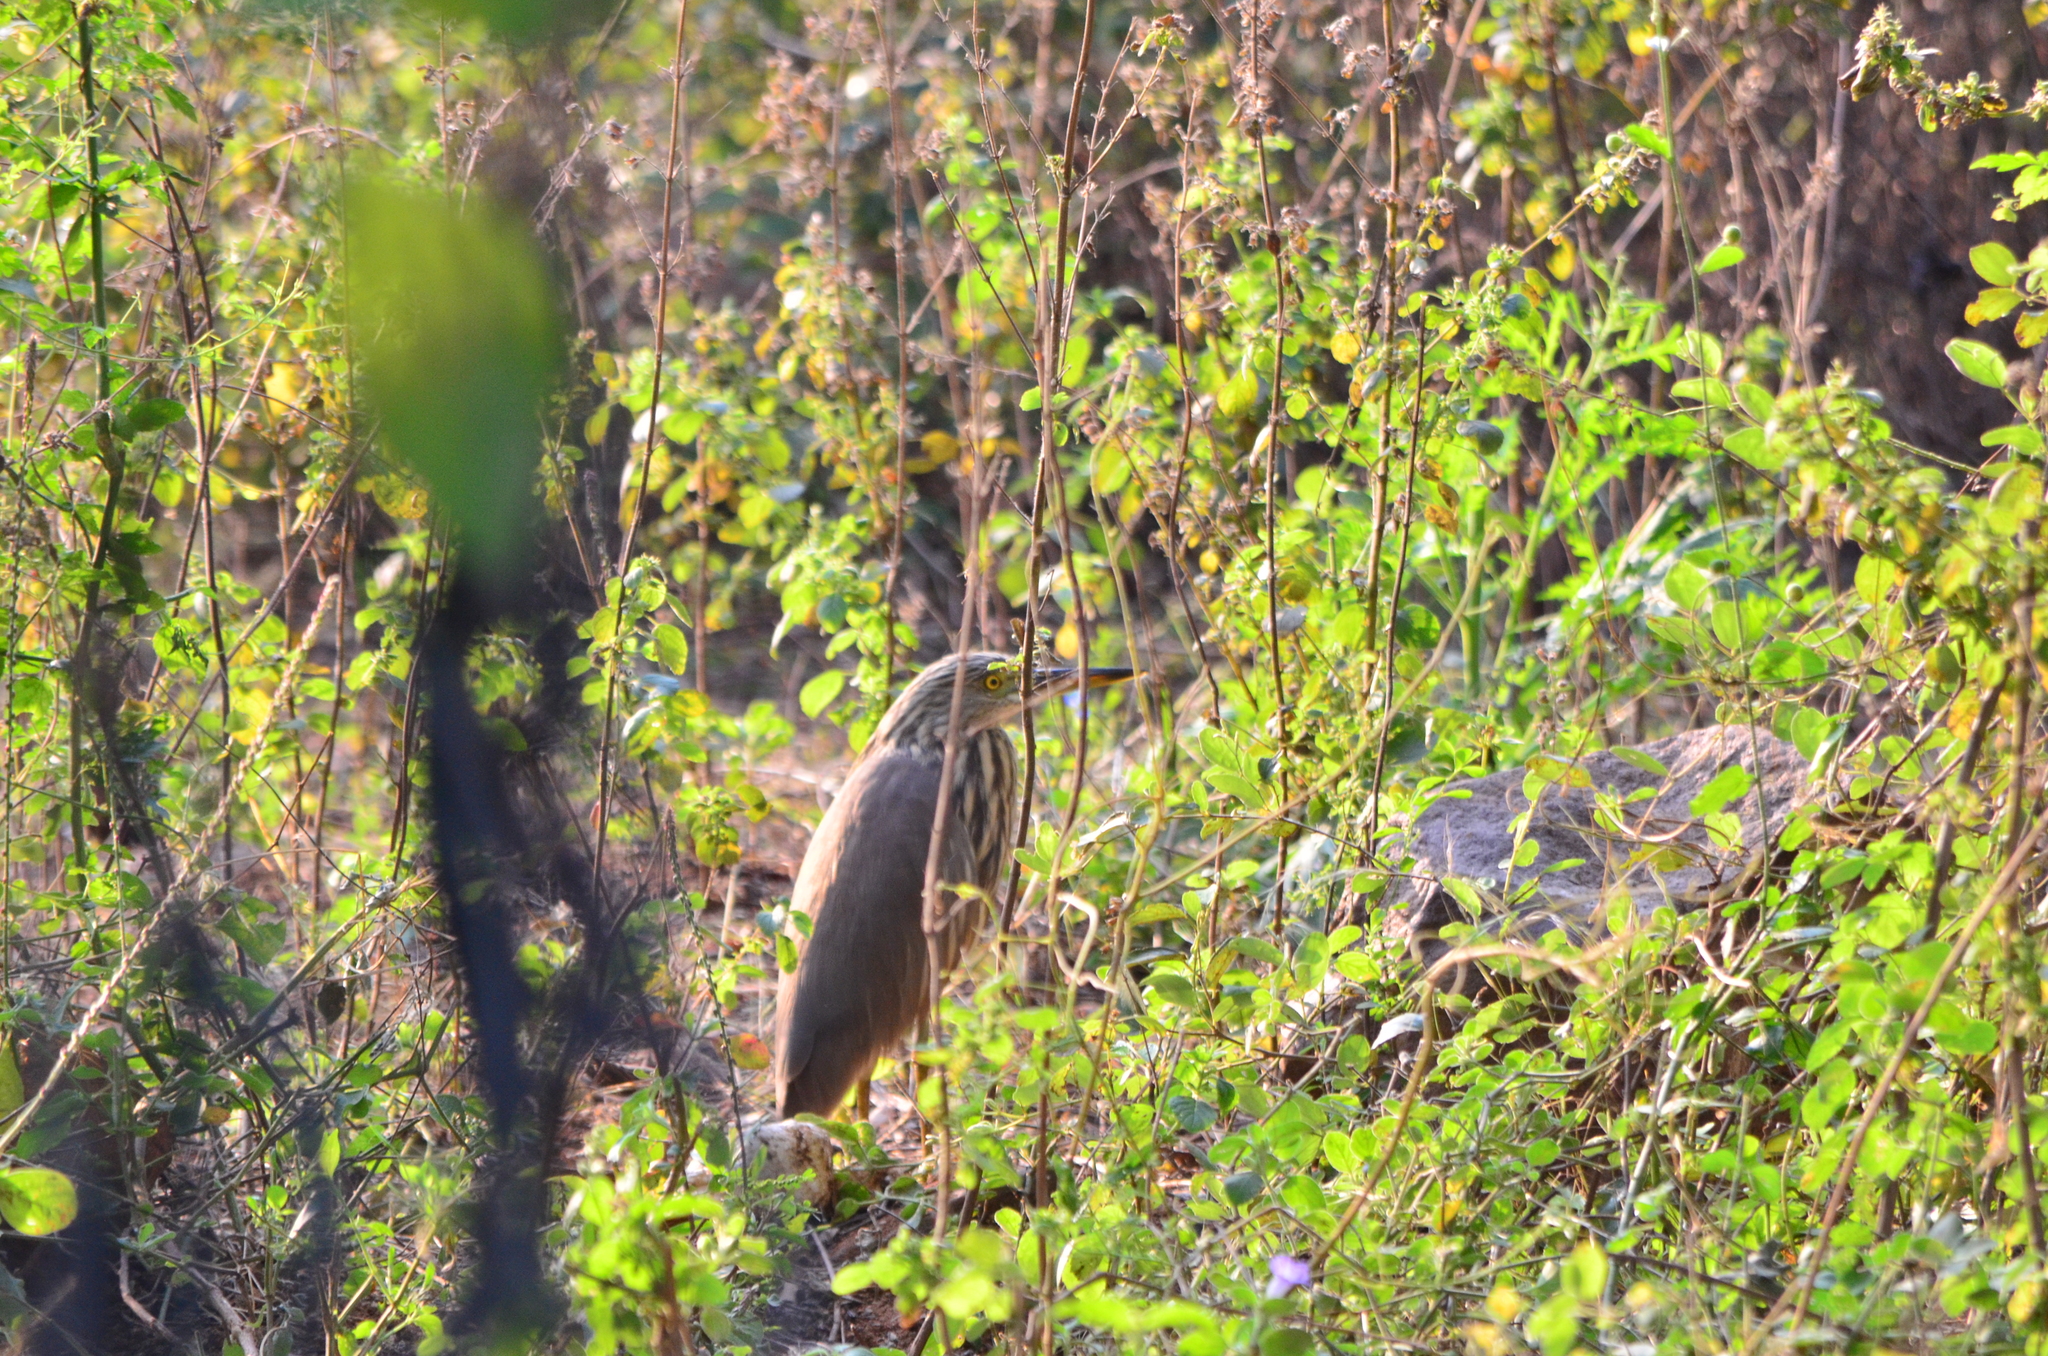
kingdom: Animalia
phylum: Chordata
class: Aves
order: Pelecaniformes
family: Ardeidae
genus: Ardeola
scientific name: Ardeola grayii
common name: Indian pond heron
